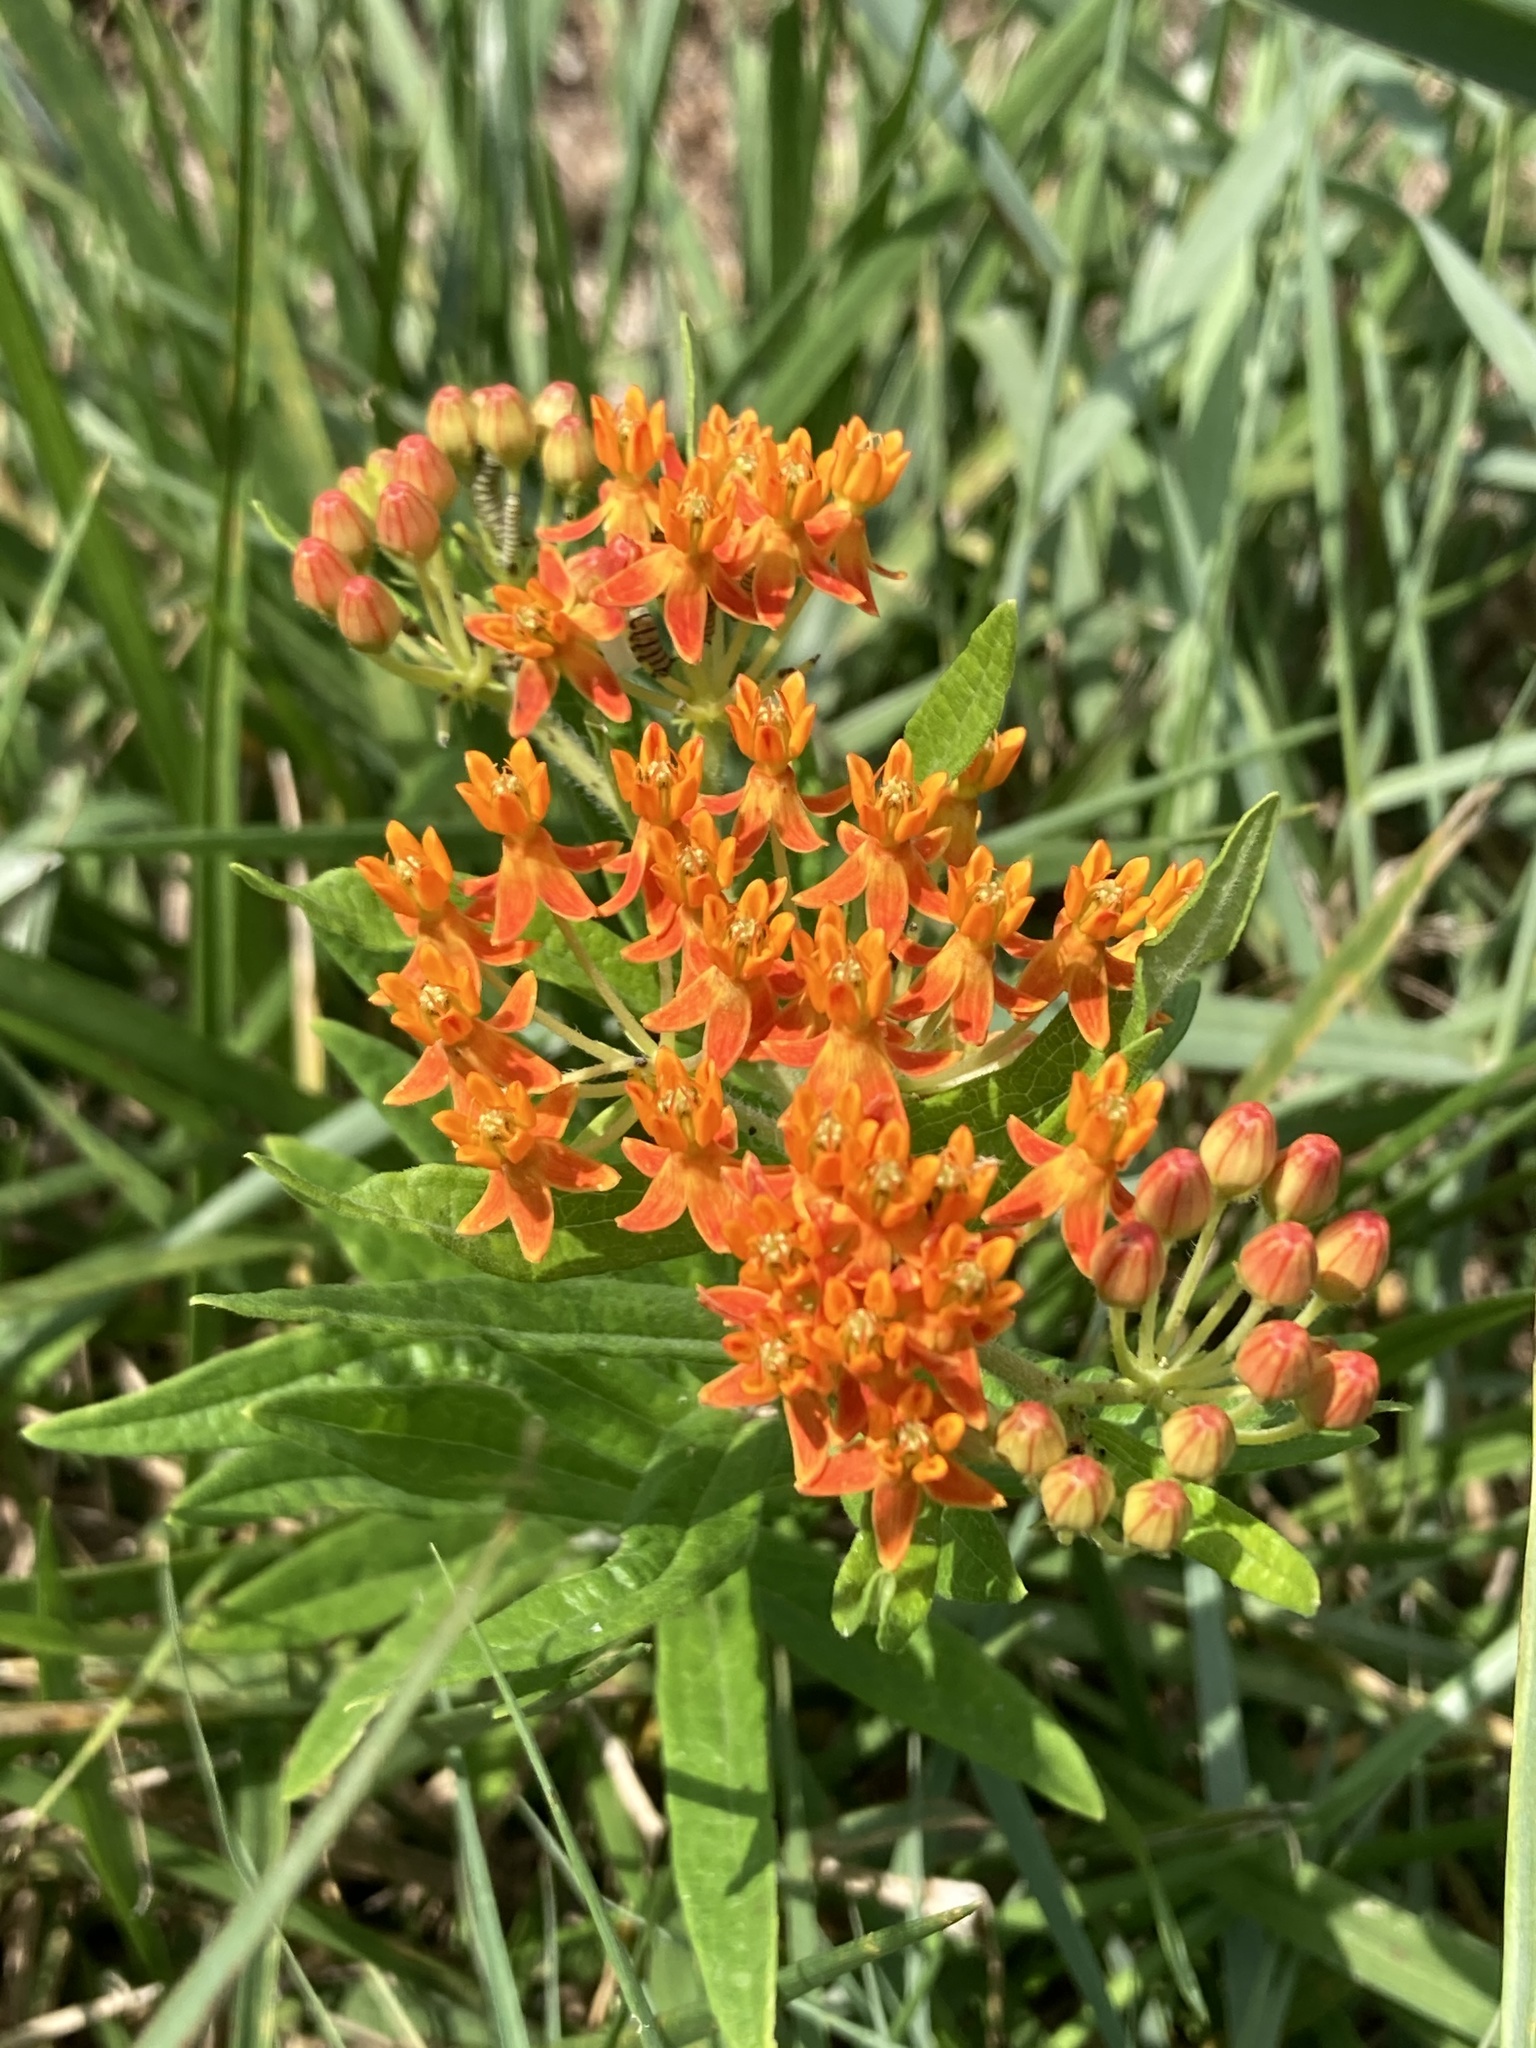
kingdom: Plantae
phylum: Tracheophyta
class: Magnoliopsida
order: Gentianales
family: Apocynaceae
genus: Asclepias
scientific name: Asclepias tuberosa
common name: Butterfly milkweed
